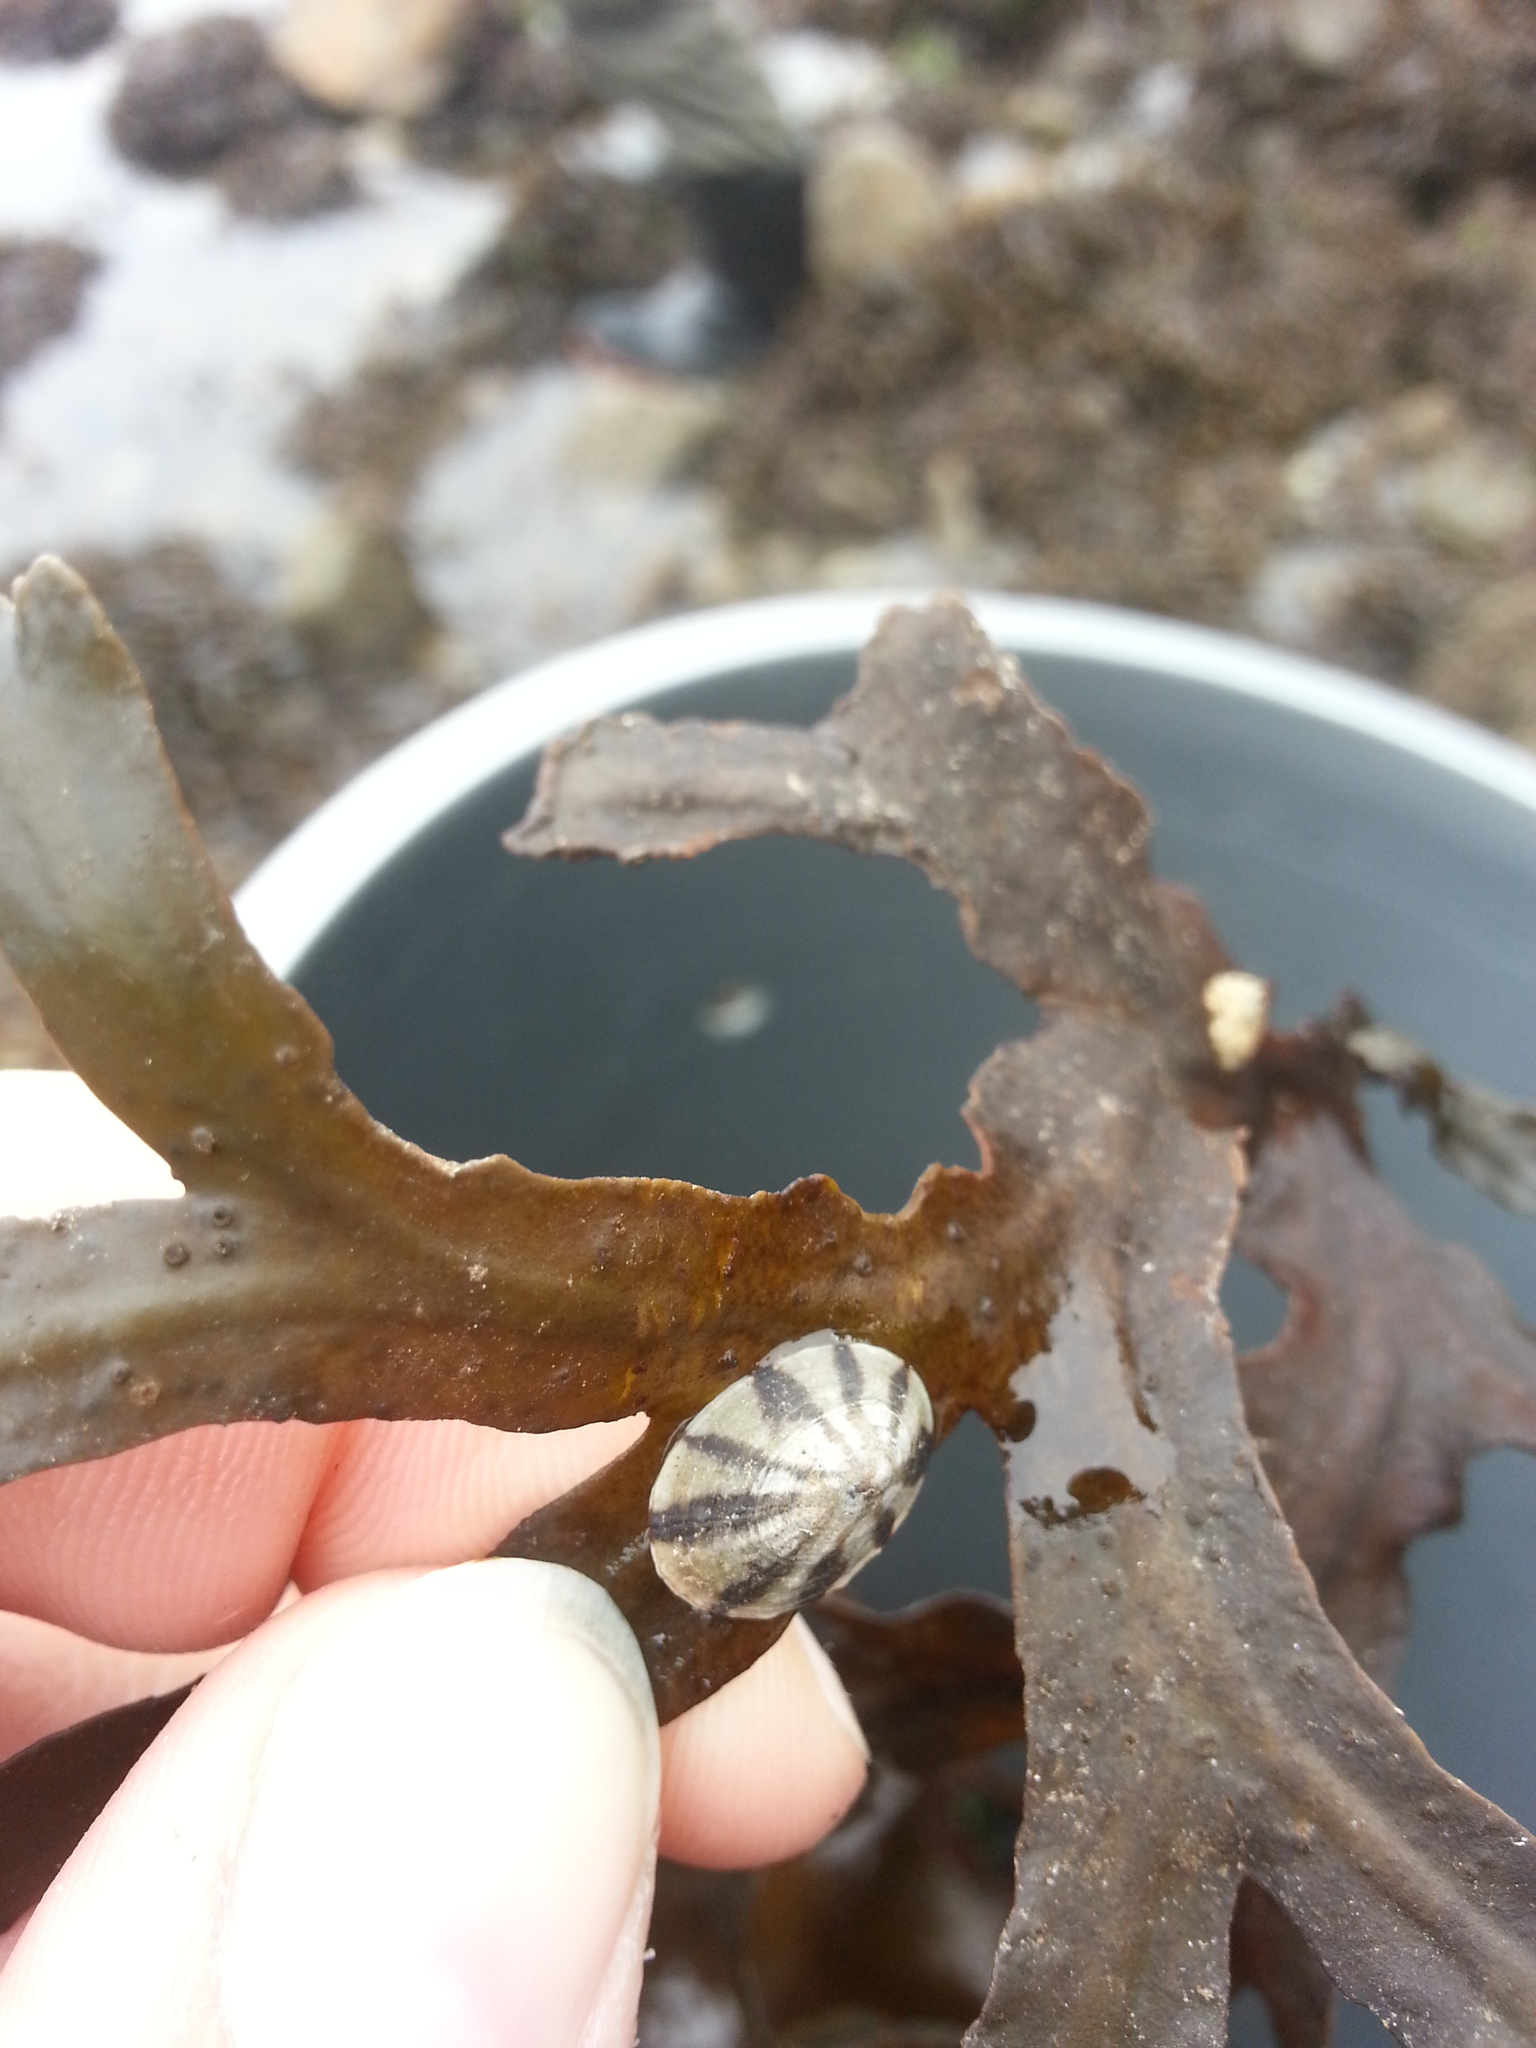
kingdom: Animalia
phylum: Mollusca
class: Gastropoda
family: Lottiidae
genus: Lottia
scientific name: Lottia pelta
